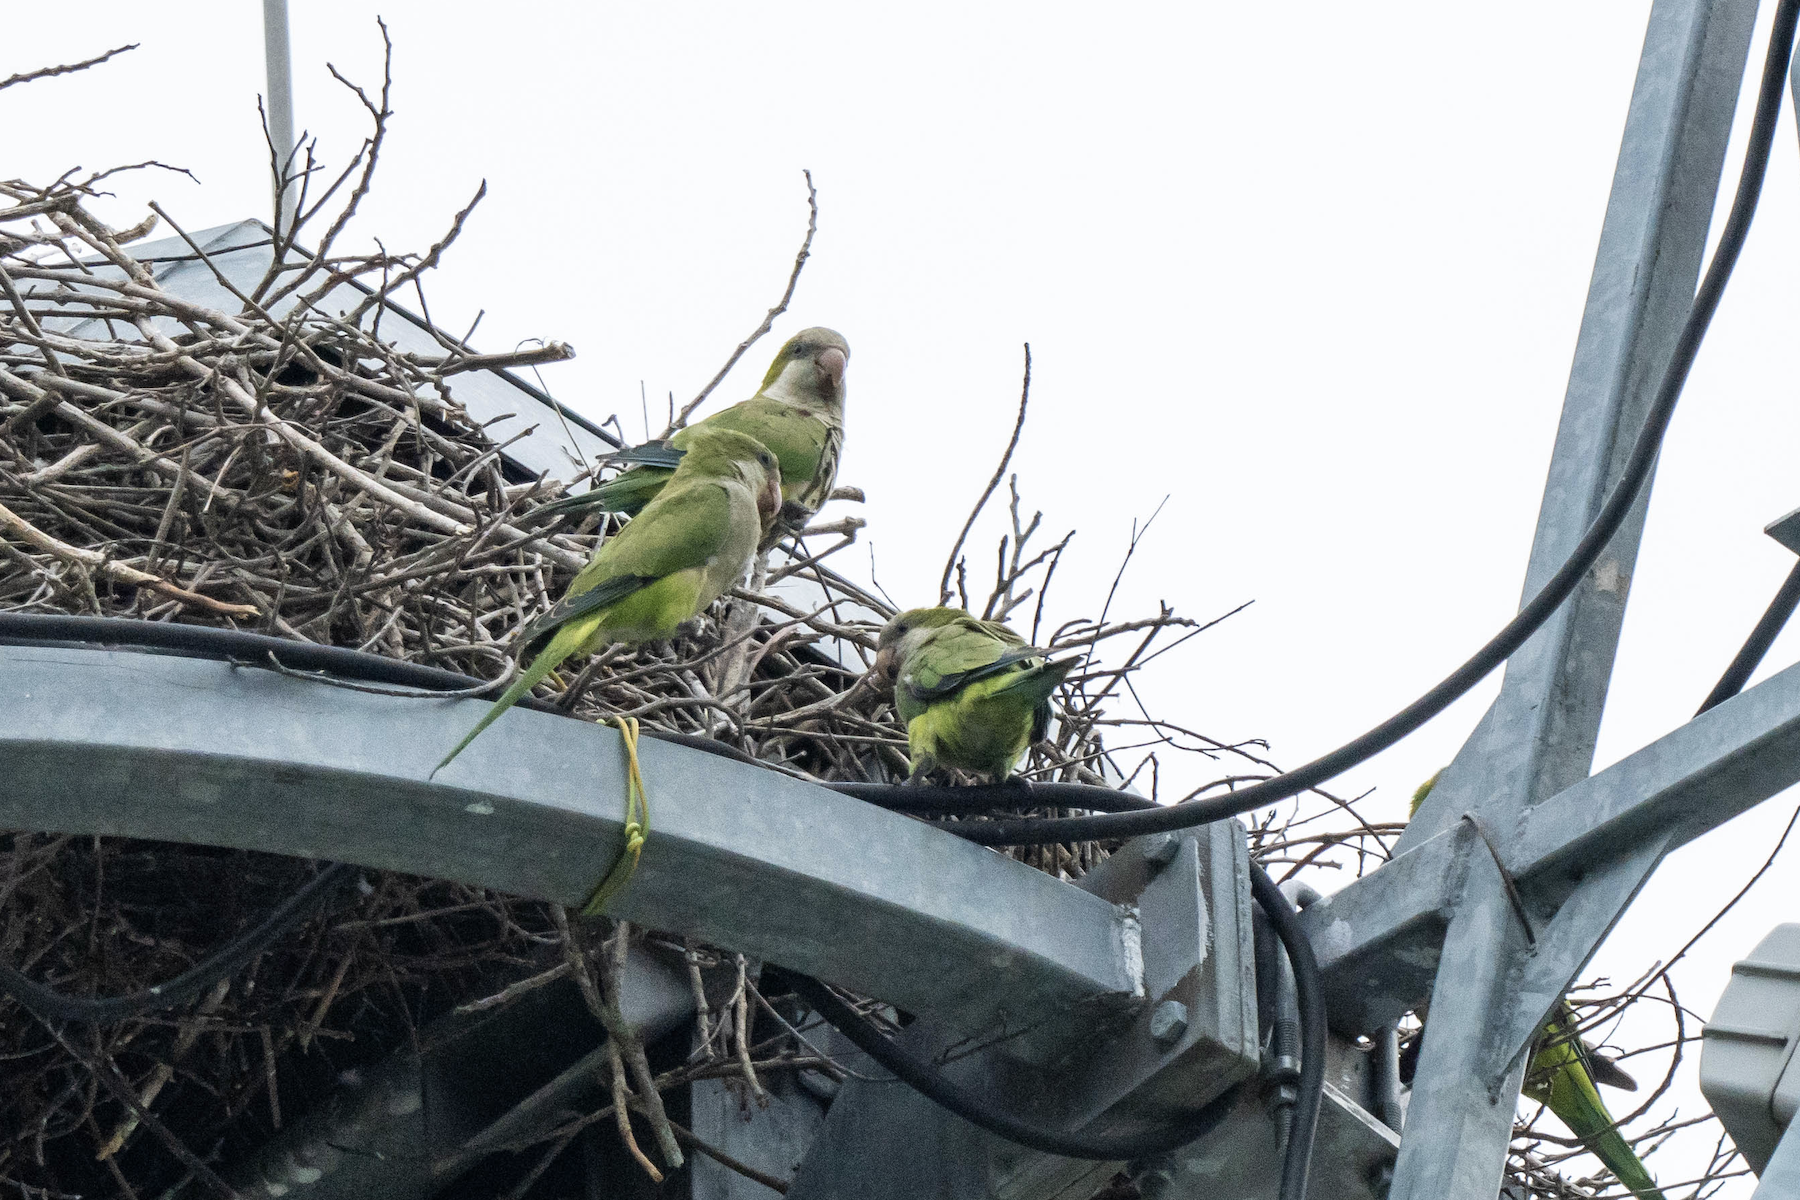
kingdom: Animalia
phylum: Chordata
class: Aves
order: Psittaciformes
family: Psittacidae
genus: Myiopsitta
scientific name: Myiopsitta monachus
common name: Monk parakeet
